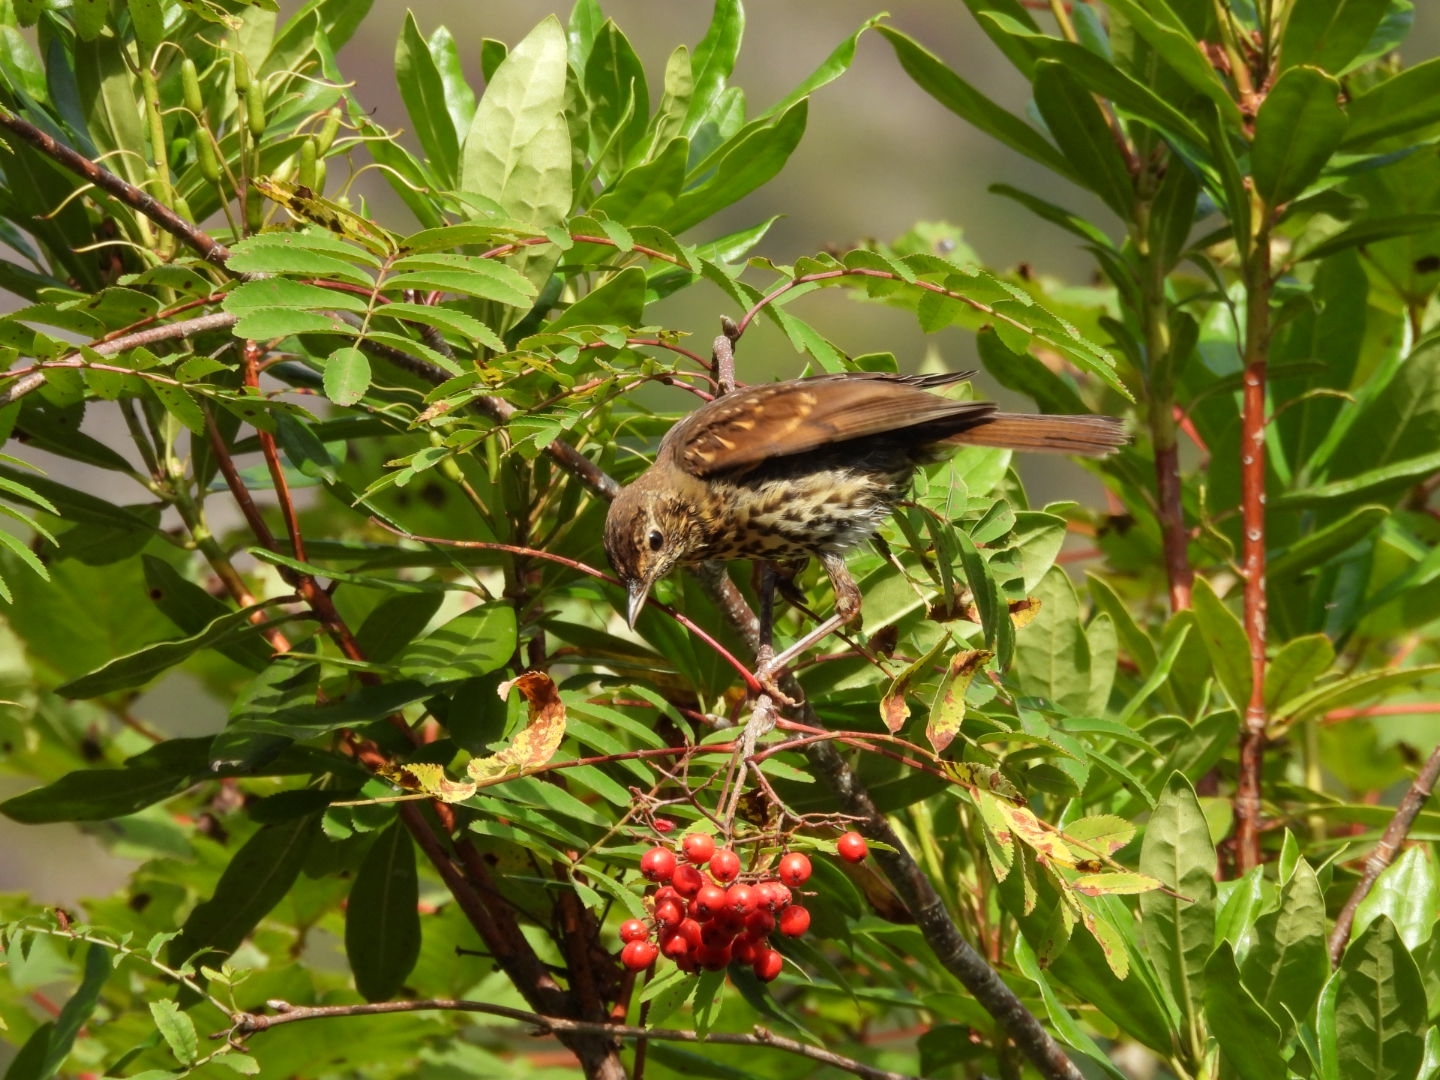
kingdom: Animalia
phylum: Chordata
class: Aves
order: Passeriformes
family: Turdidae
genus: Turdus
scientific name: Turdus philomelos
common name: Song thrush
